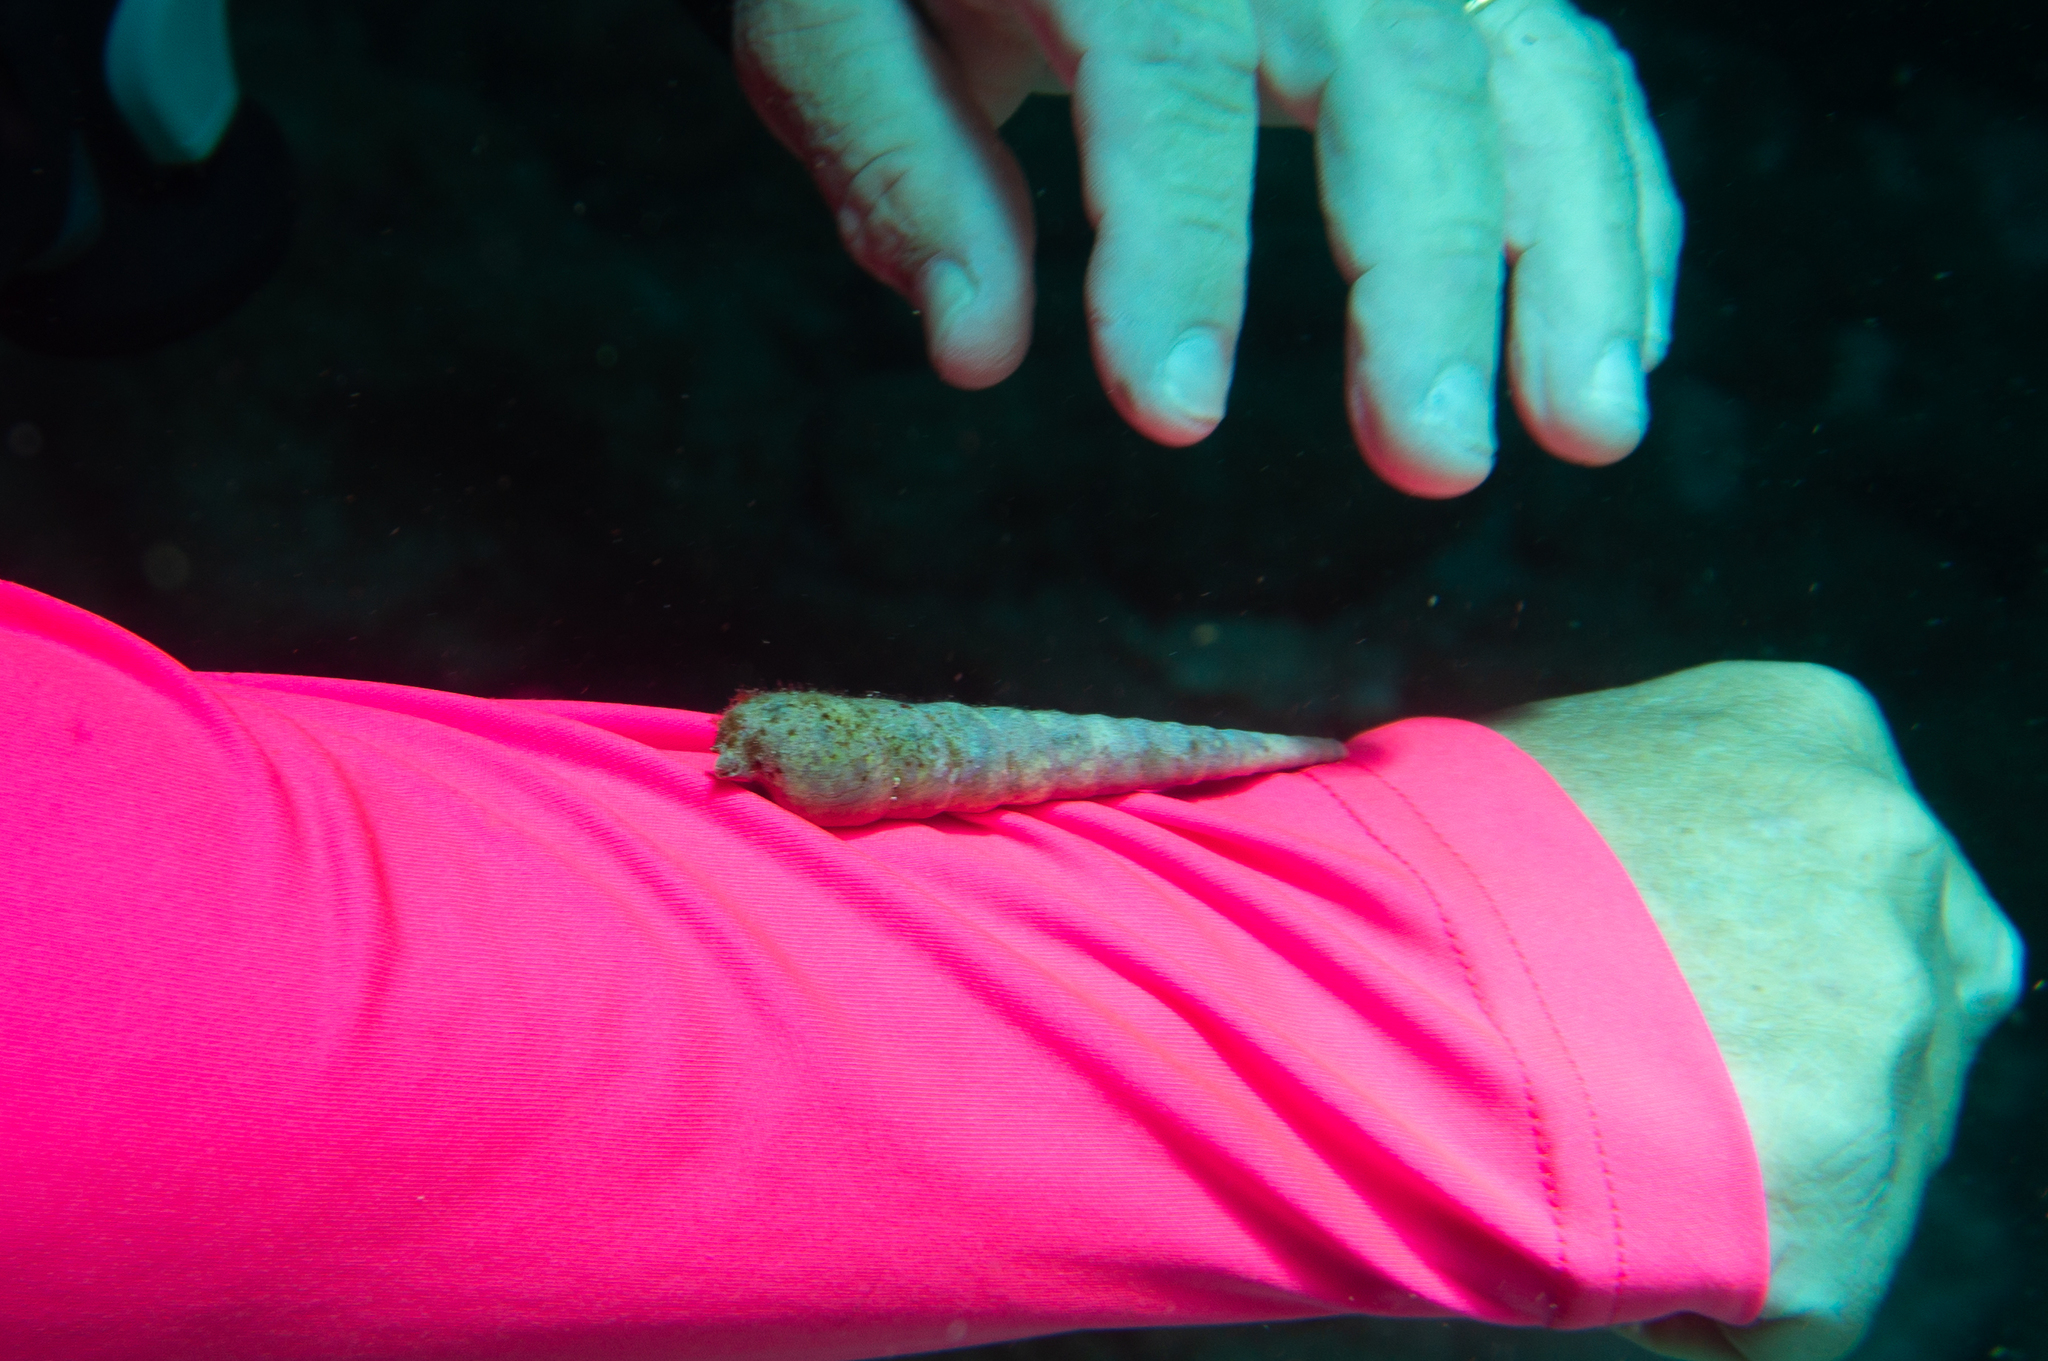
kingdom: Animalia
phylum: Mollusca
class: Gastropoda
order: Neogastropoda
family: Terebridae
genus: Terebra
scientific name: Terebra achates
